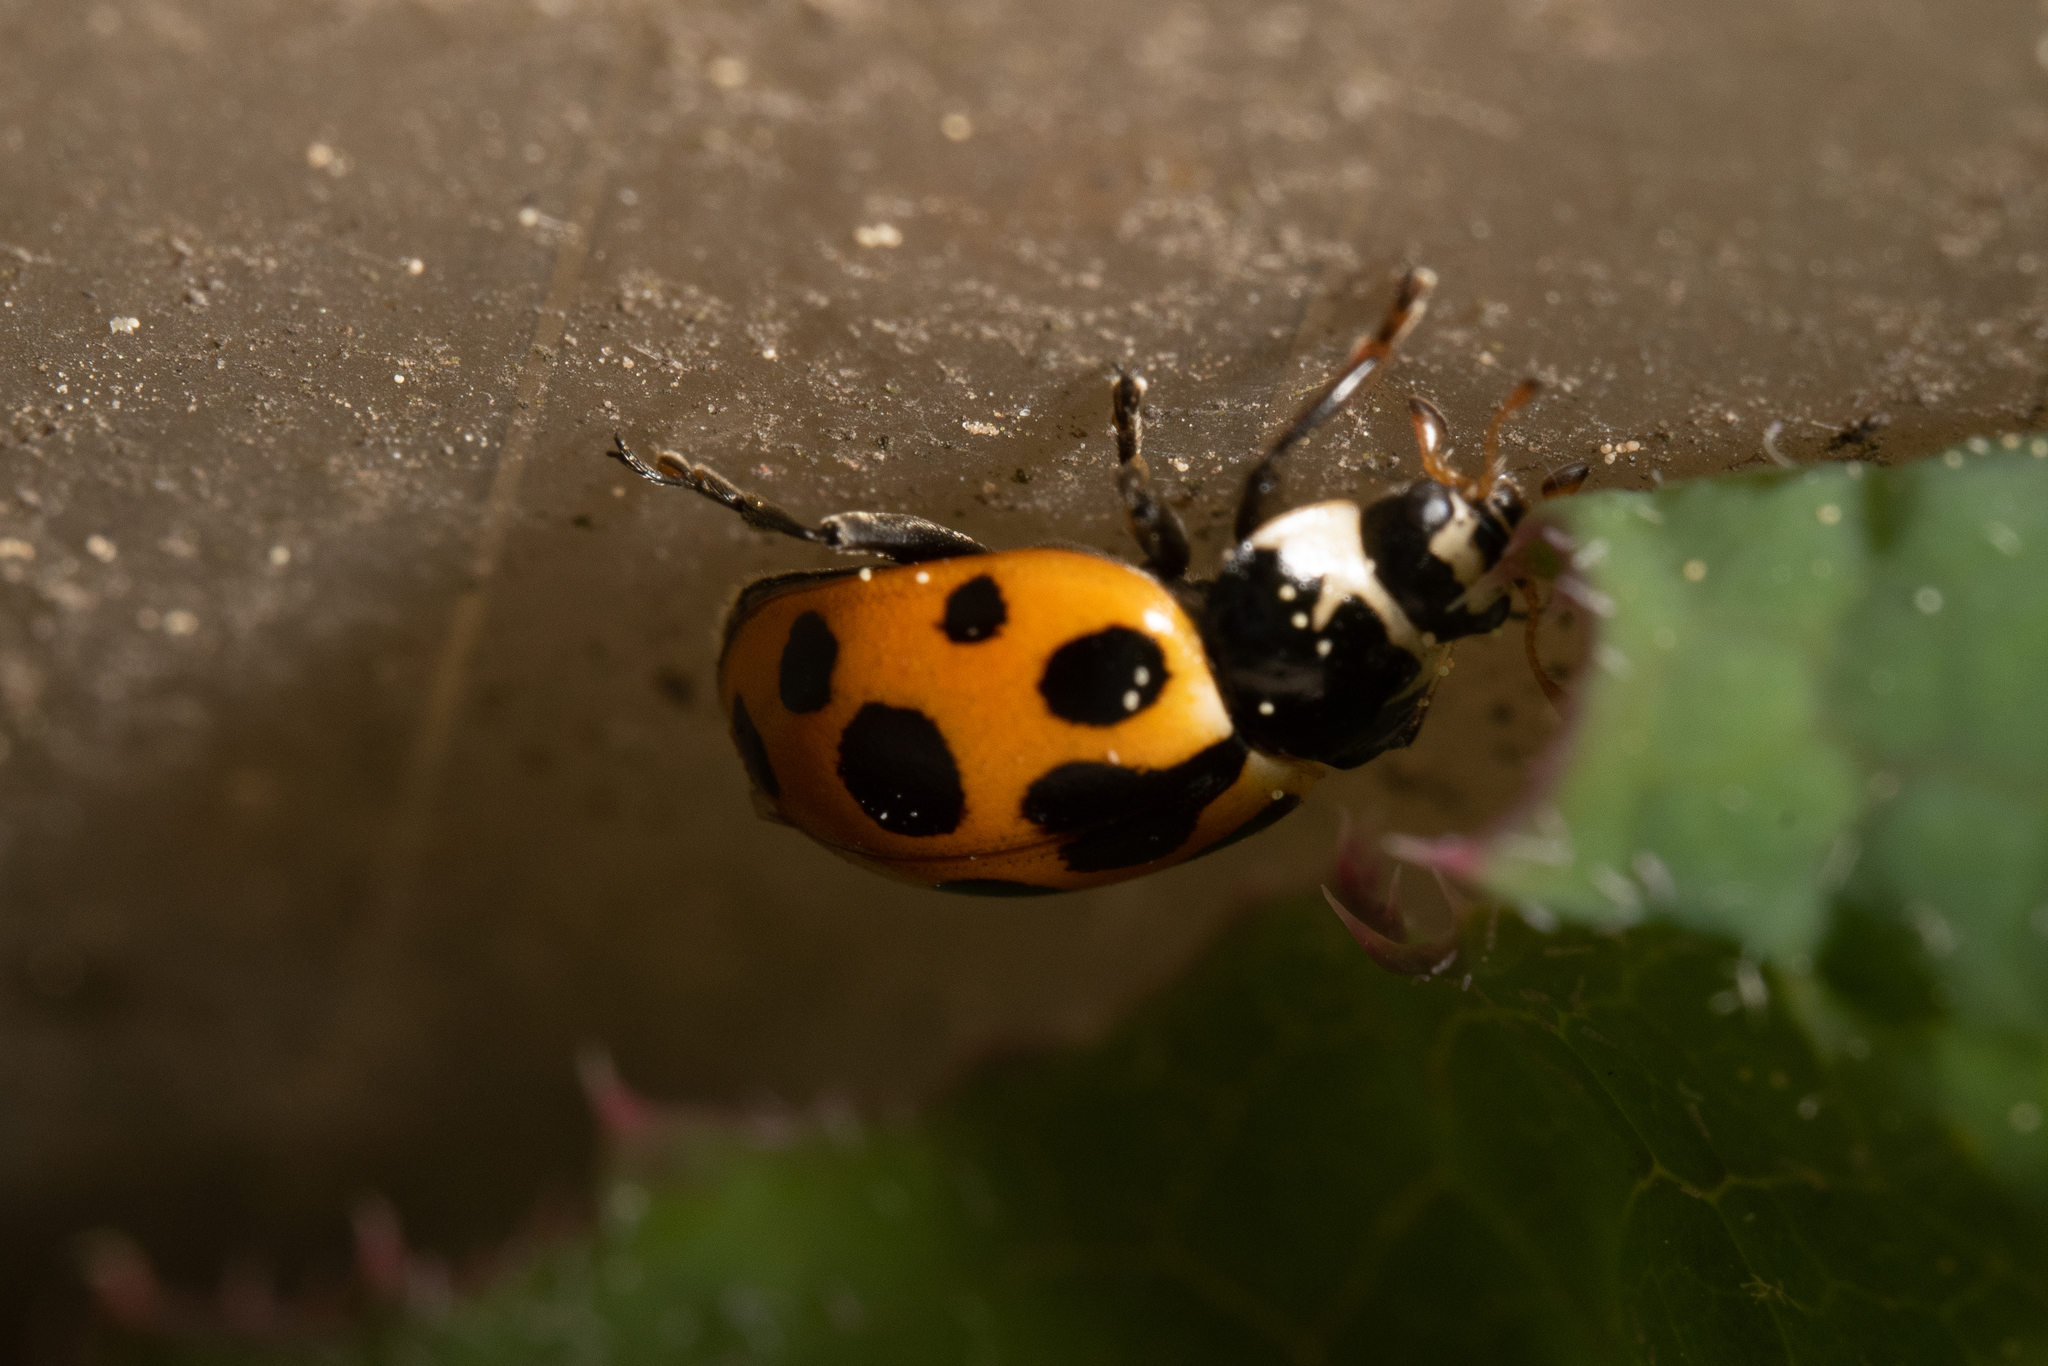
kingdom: Animalia
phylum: Arthropoda
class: Insecta
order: Coleoptera
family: Coccinellidae
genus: Ceratomegilla
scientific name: Ceratomegilla notata
